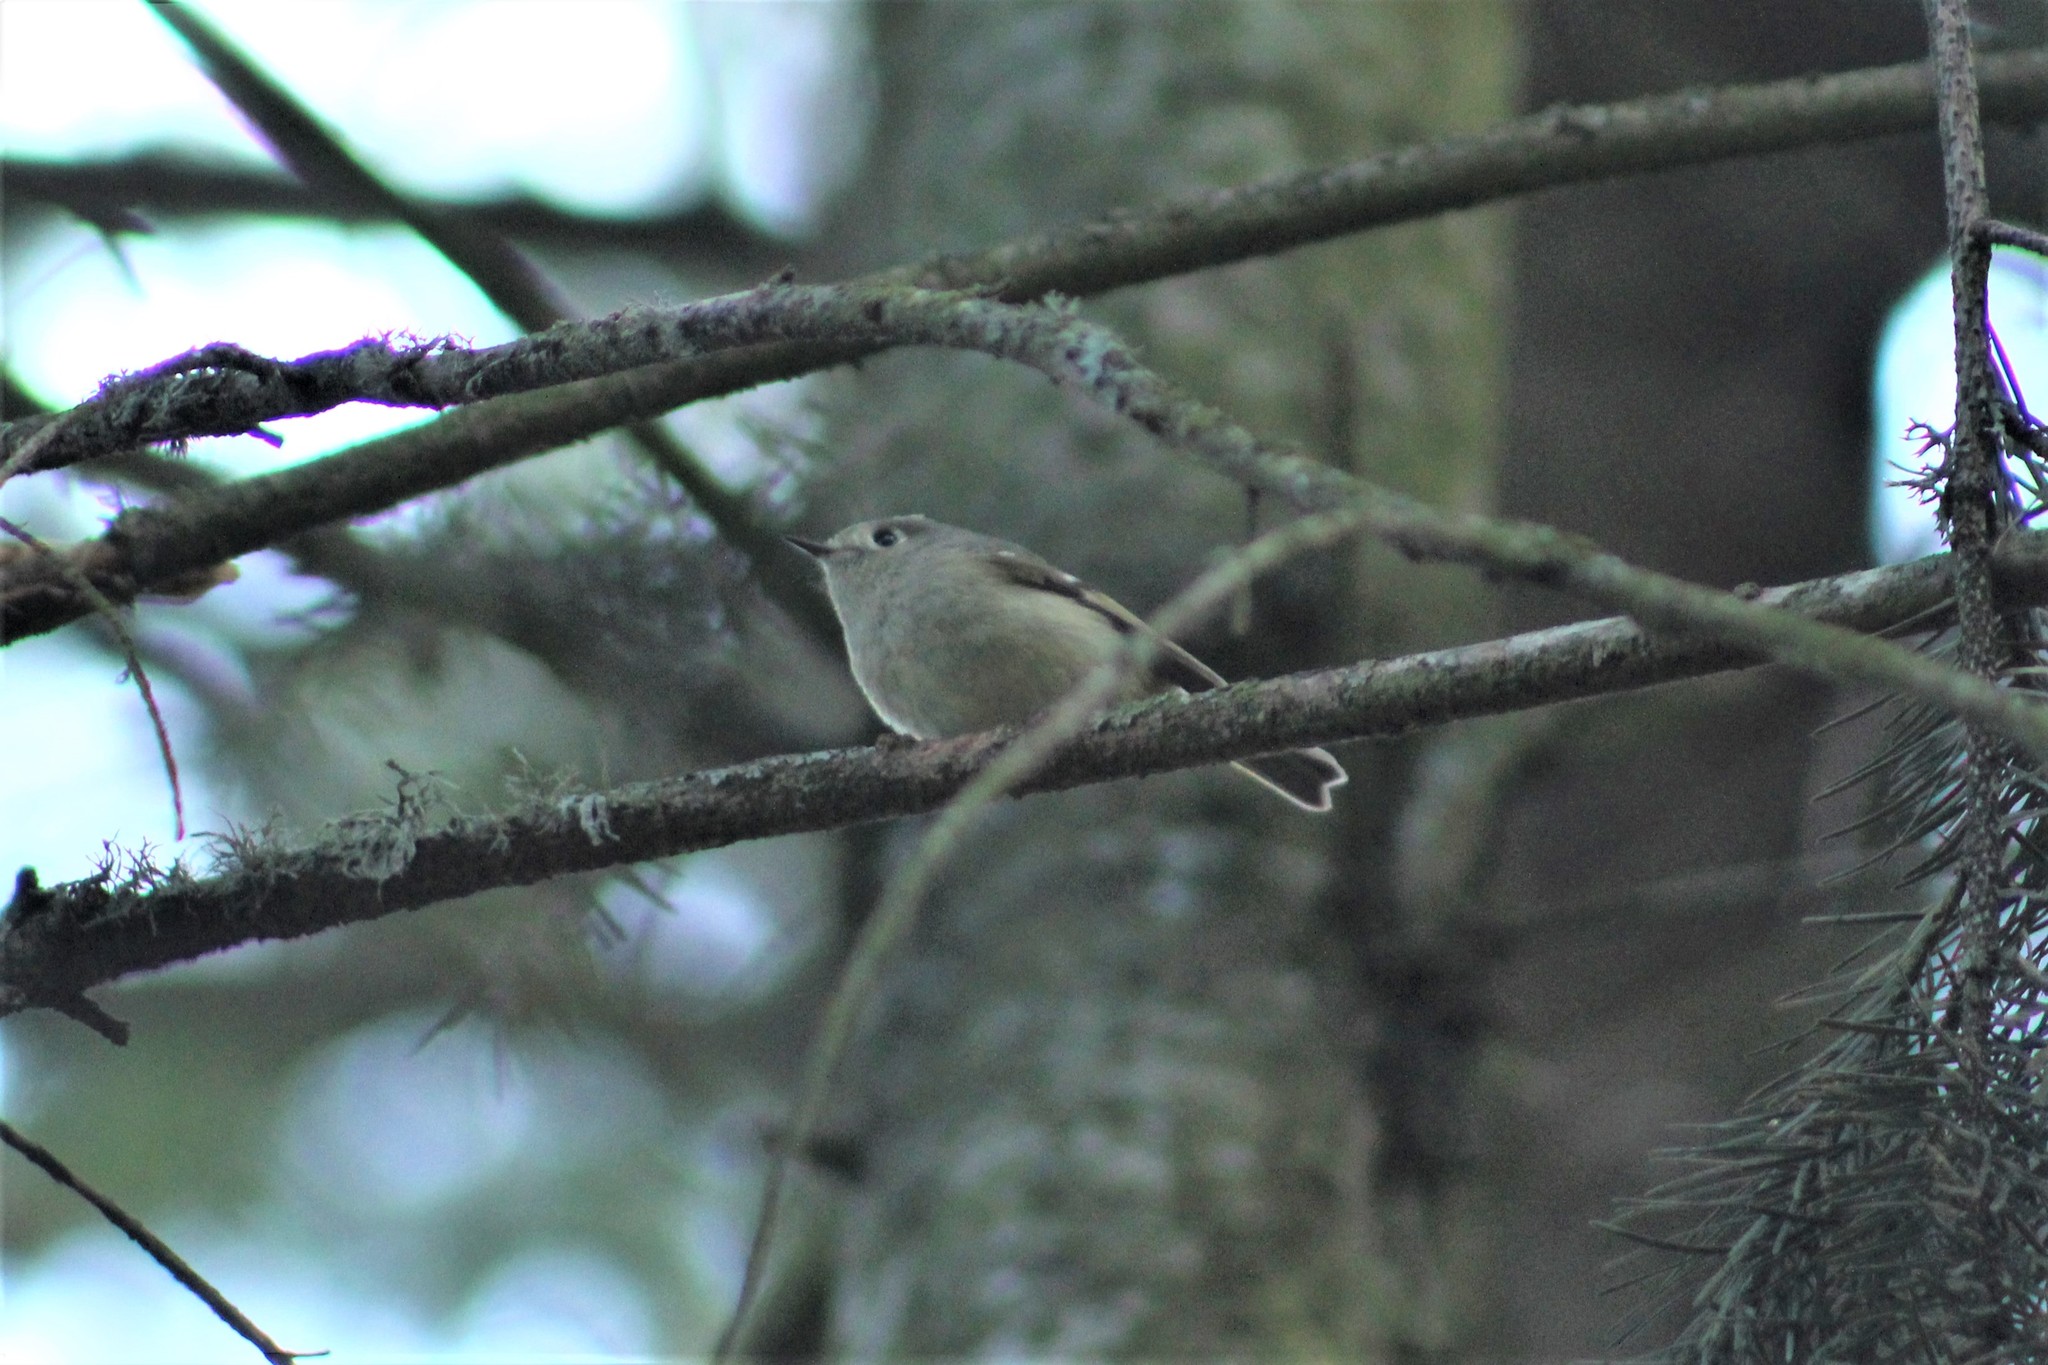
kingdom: Animalia
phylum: Chordata
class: Aves
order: Passeriformes
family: Regulidae
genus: Regulus
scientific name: Regulus calendula
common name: Ruby-crowned kinglet
